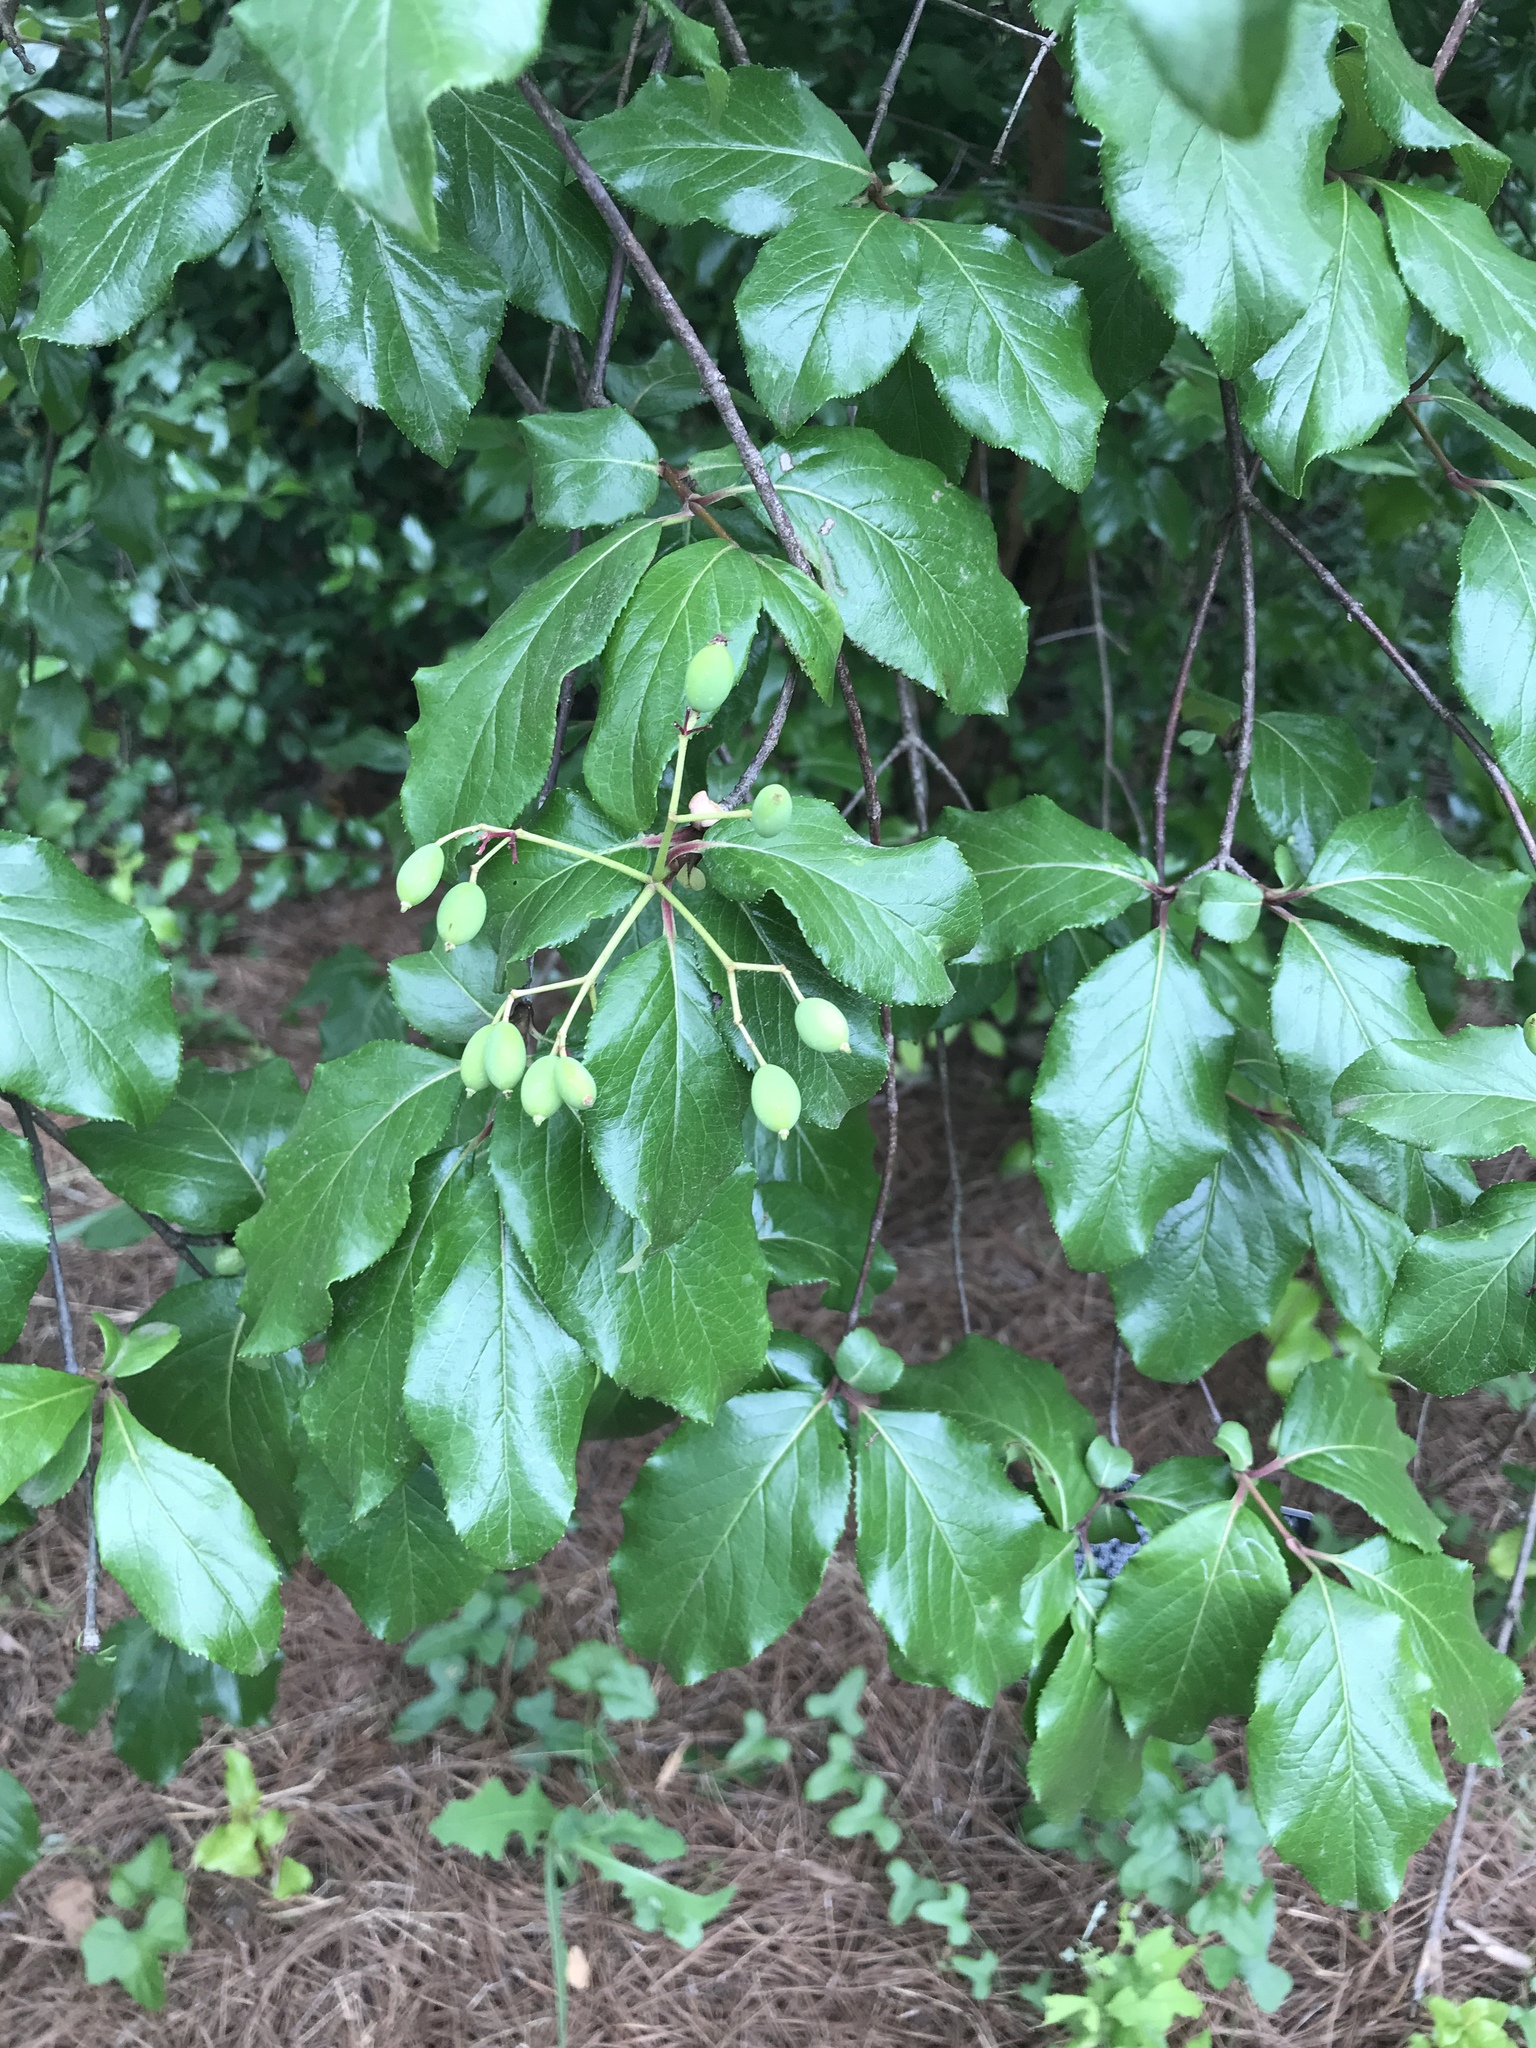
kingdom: Plantae
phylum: Tracheophyta
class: Magnoliopsida
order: Dipsacales
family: Viburnaceae
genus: Viburnum
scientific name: Viburnum rufidulum
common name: Blue haw
